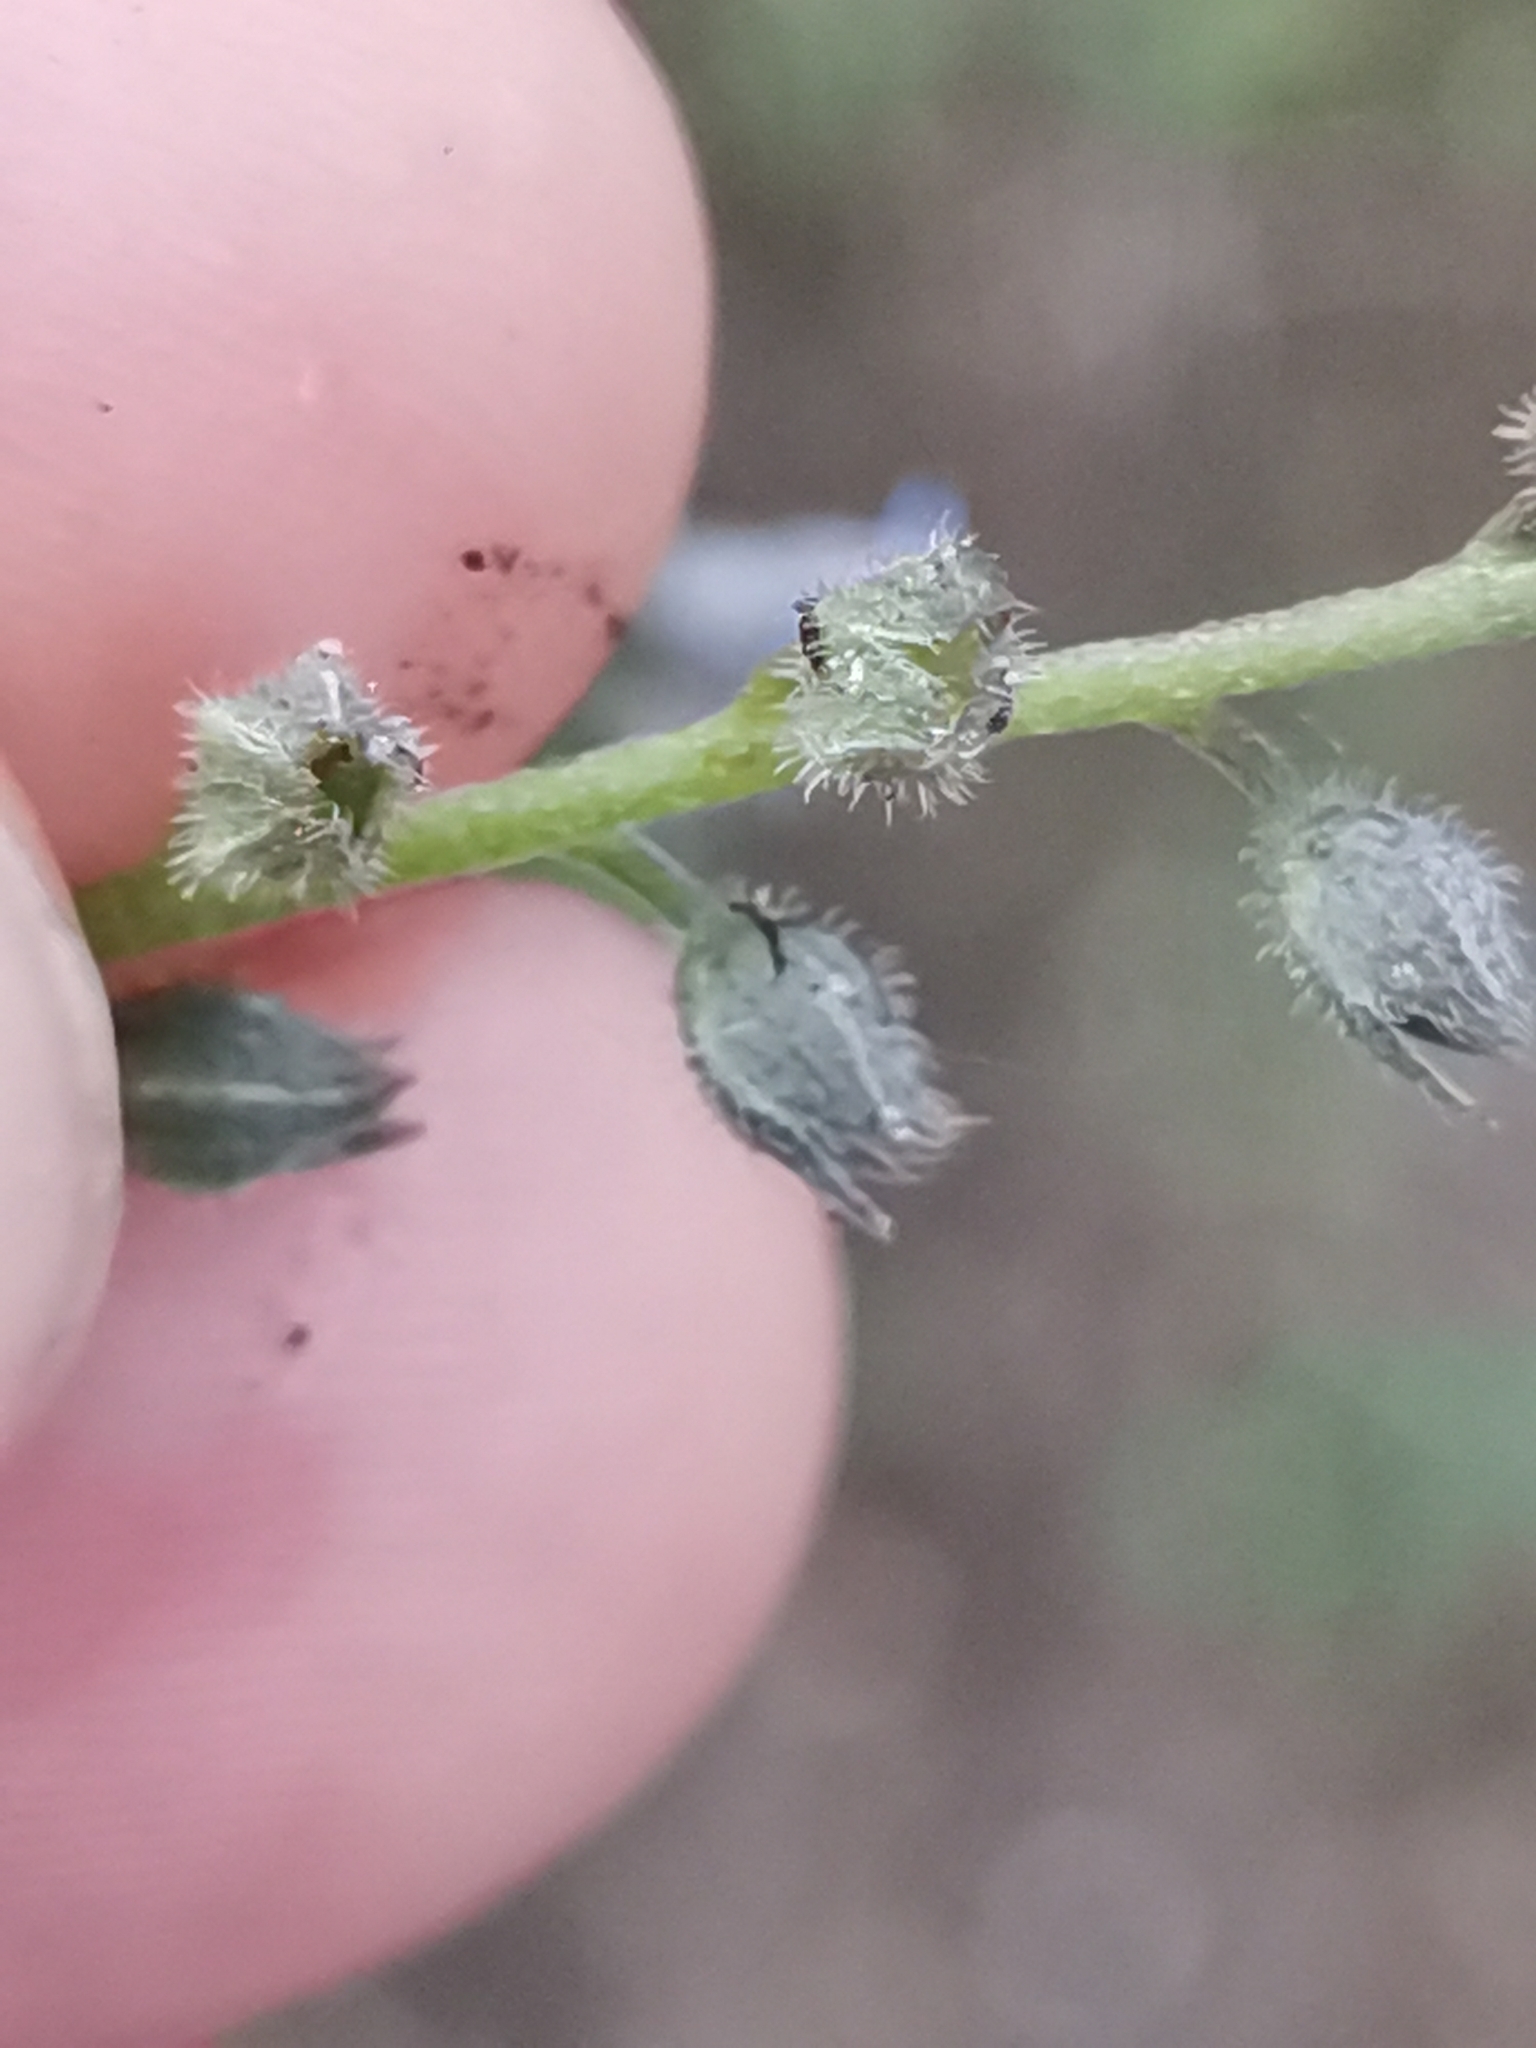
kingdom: Plantae
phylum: Tracheophyta
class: Magnoliopsida
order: Boraginales
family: Boraginaceae
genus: Myosotis
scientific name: Myosotis arvensis
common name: Field forget-me-not
